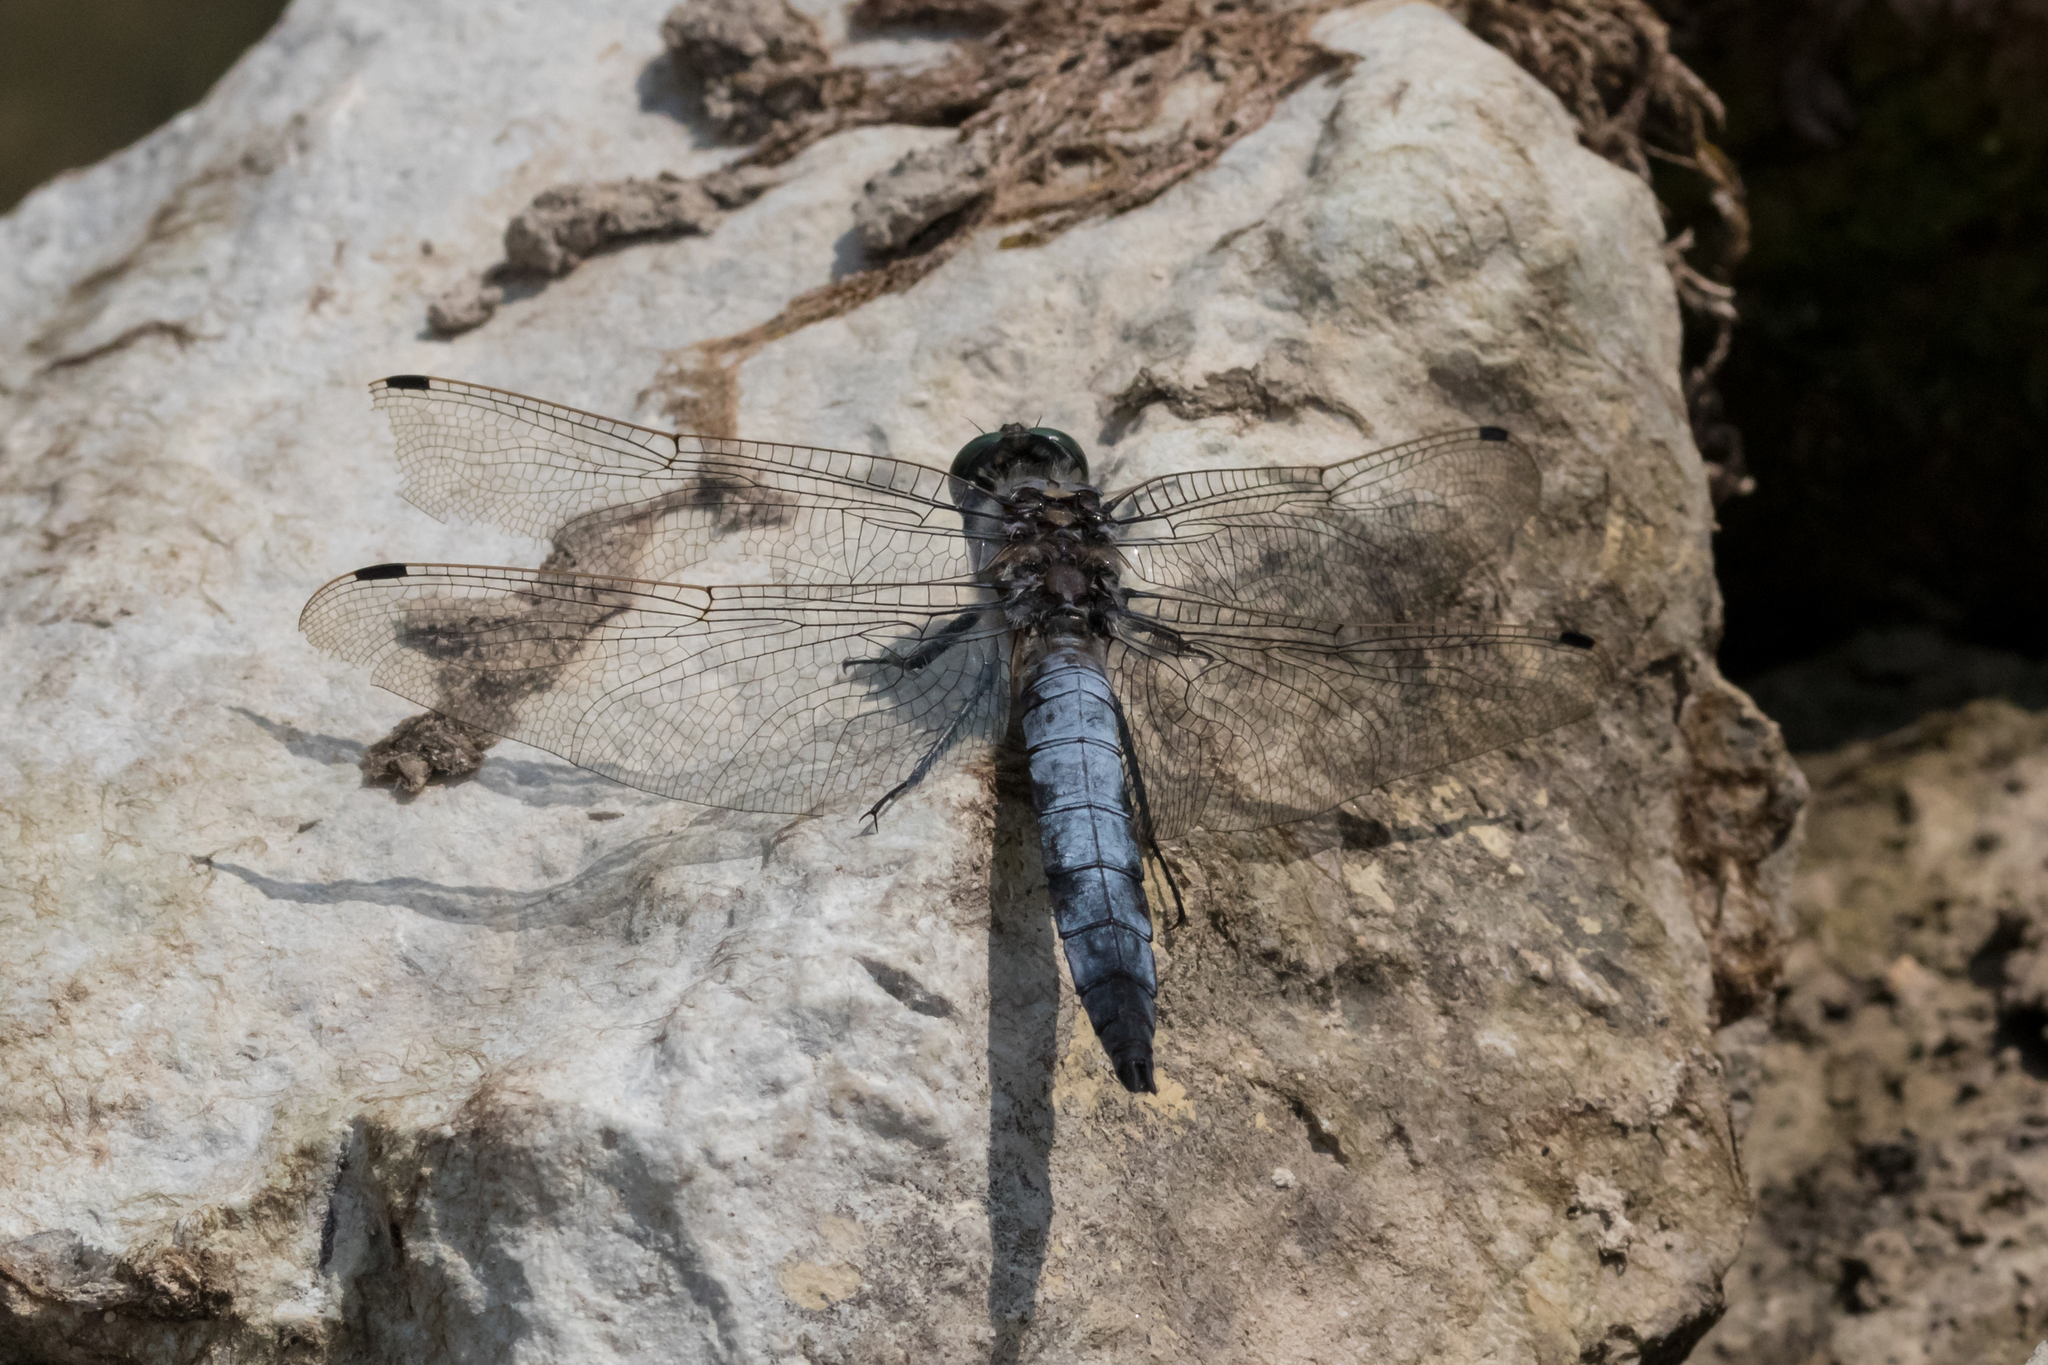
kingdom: Animalia
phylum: Arthropoda
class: Insecta
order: Odonata
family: Libellulidae
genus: Orthetrum
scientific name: Orthetrum cancellatum
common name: Black-tailed skimmer
